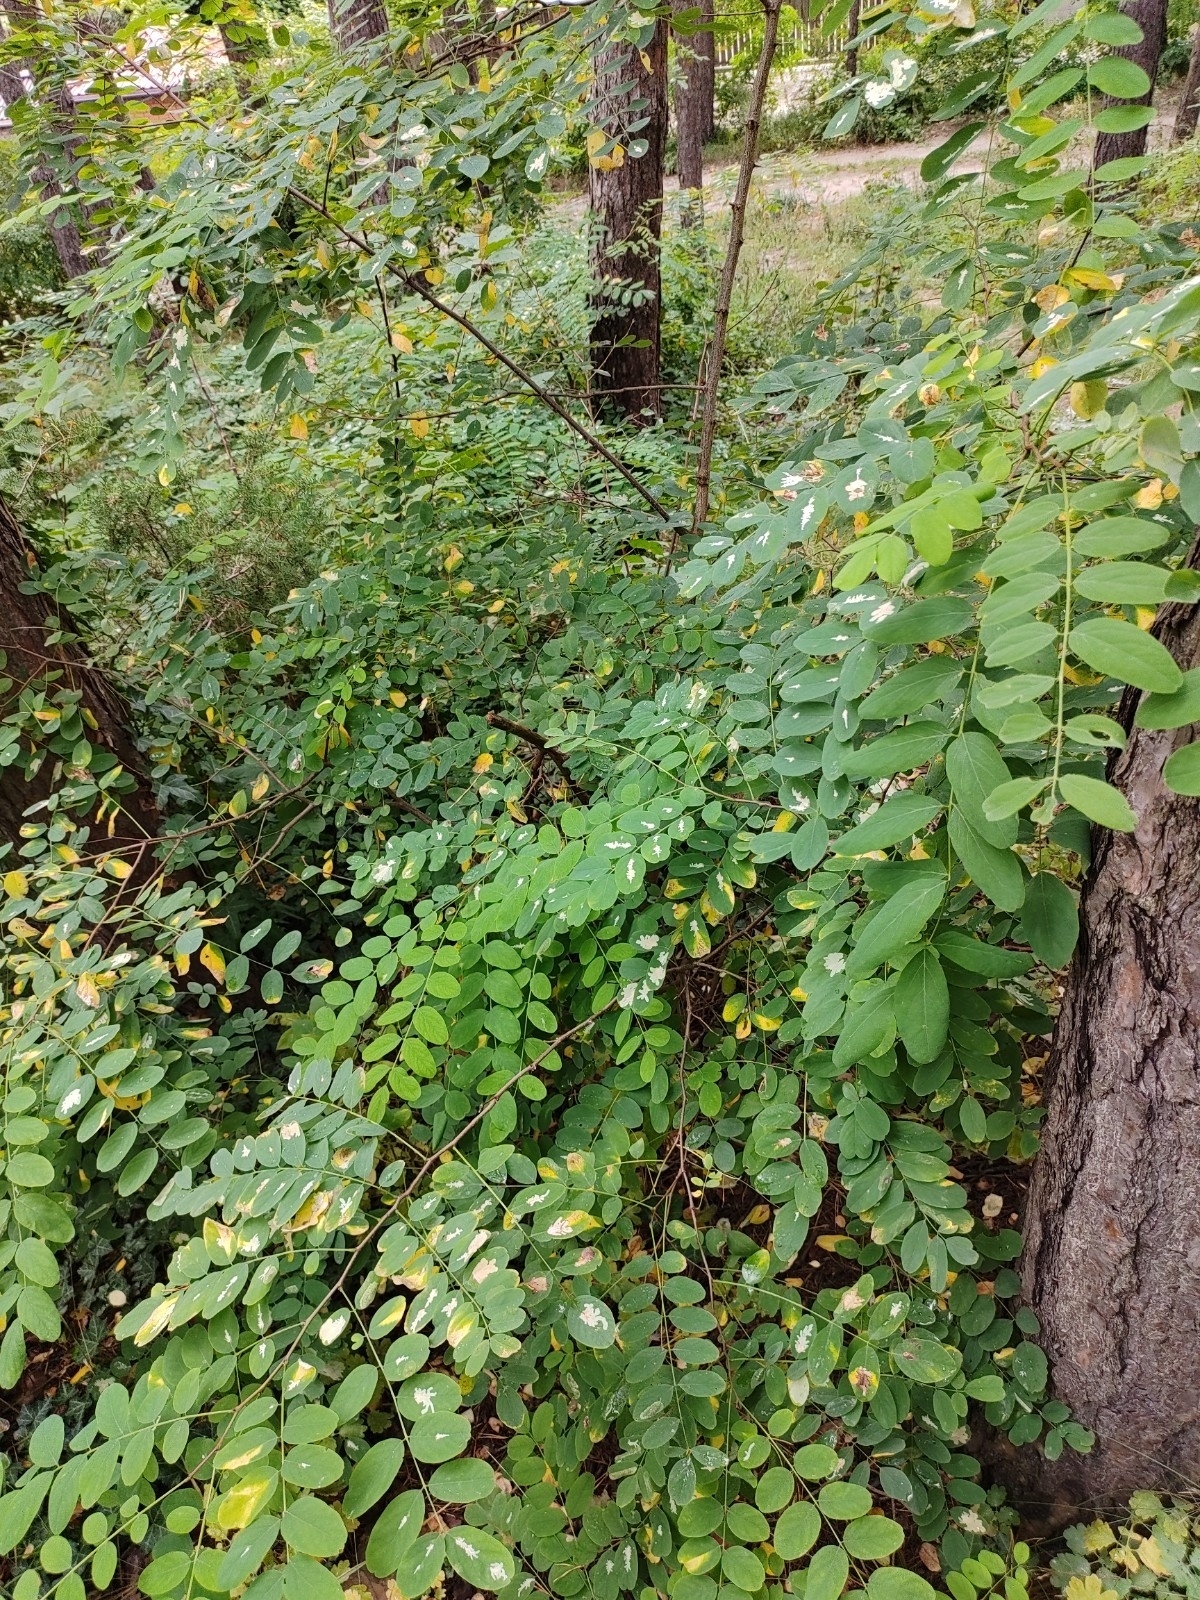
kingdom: Plantae
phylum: Tracheophyta
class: Magnoliopsida
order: Fabales
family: Fabaceae
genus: Robinia
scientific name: Robinia pseudoacacia
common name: Black locust
